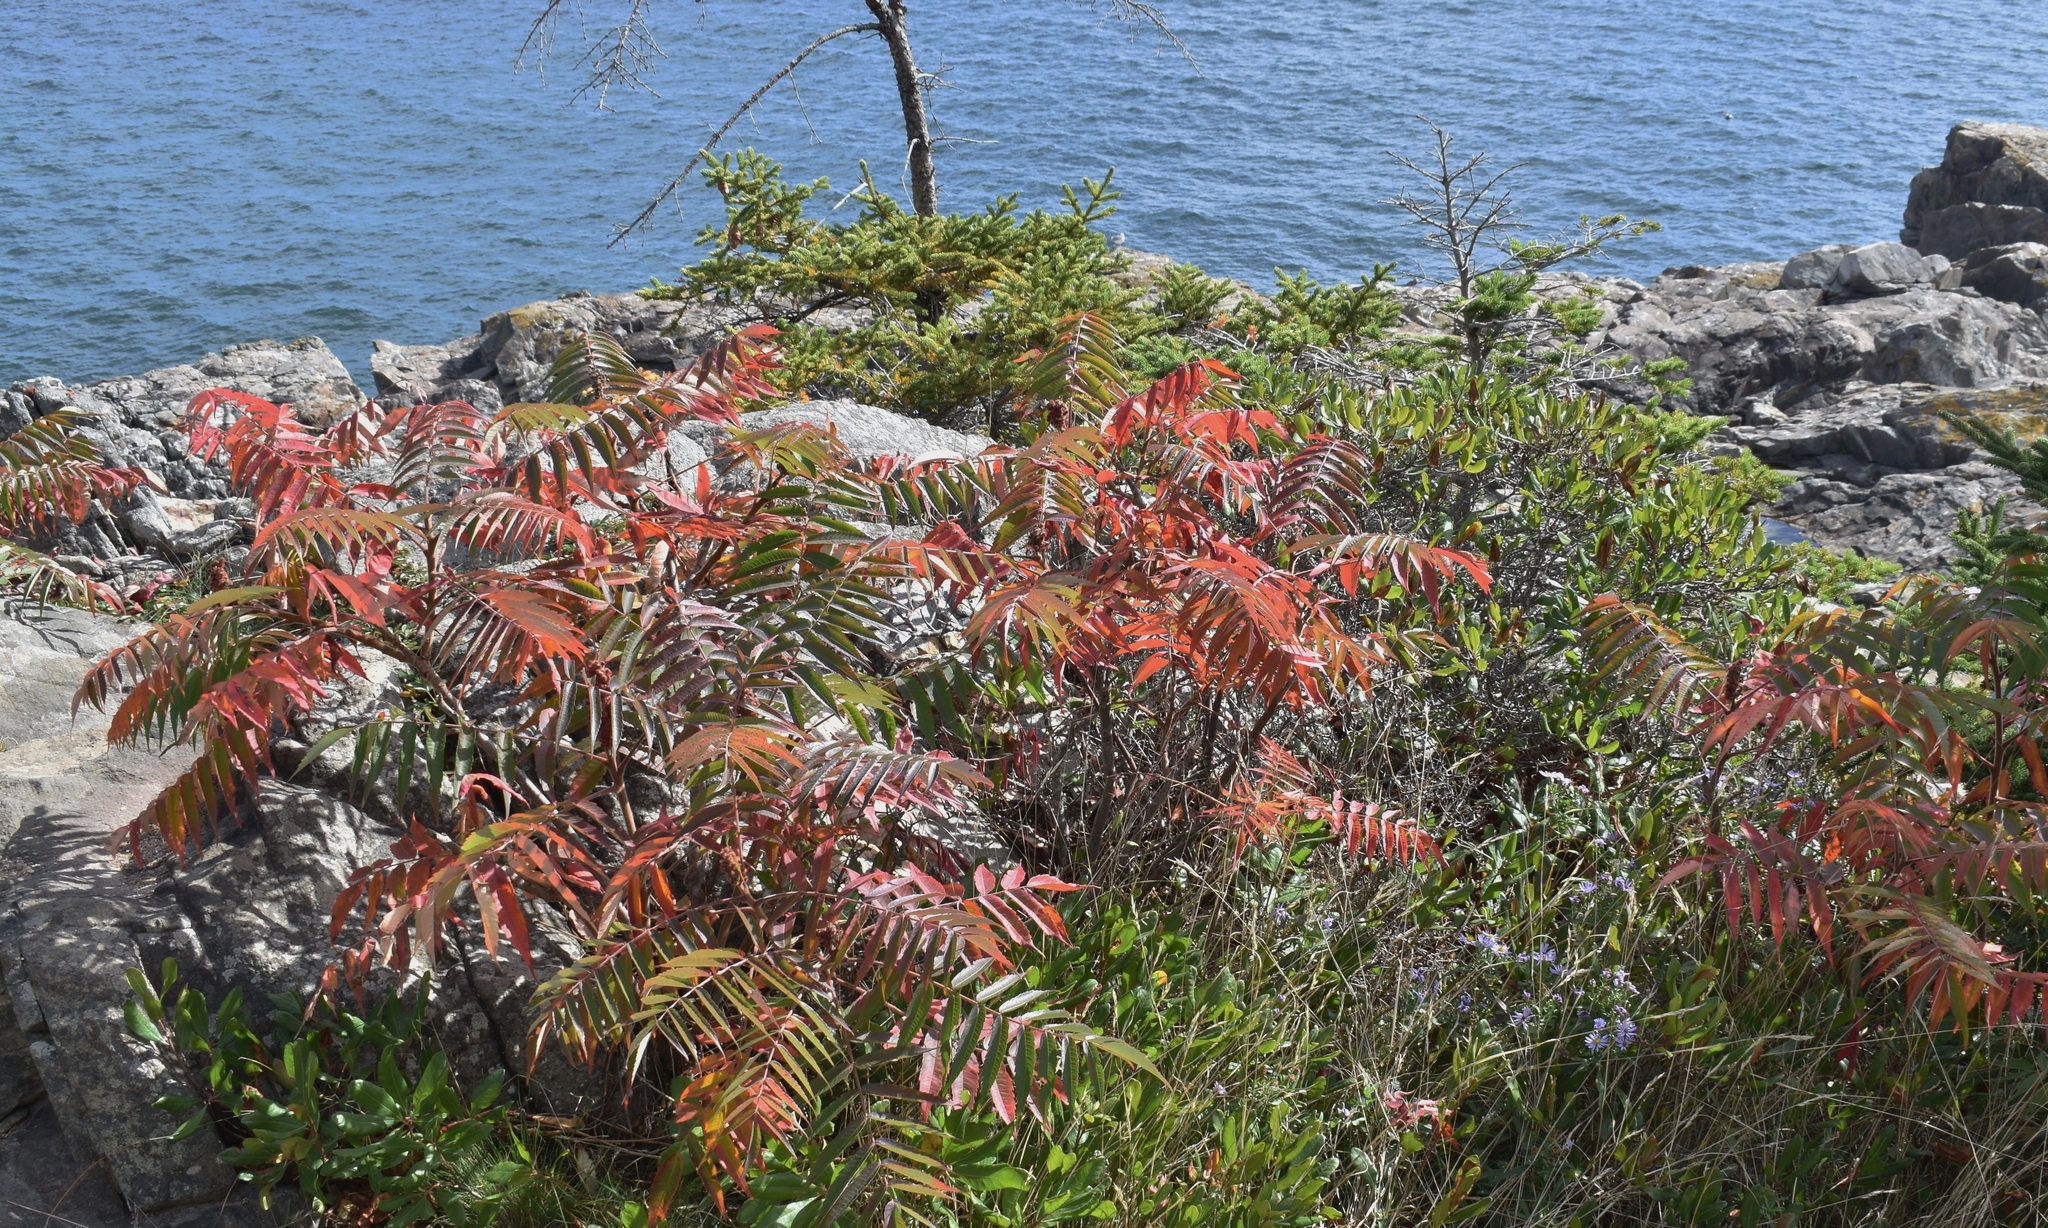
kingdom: Plantae
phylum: Tracheophyta
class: Magnoliopsida
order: Sapindales
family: Anacardiaceae
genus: Rhus
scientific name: Rhus typhina
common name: Staghorn sumac
